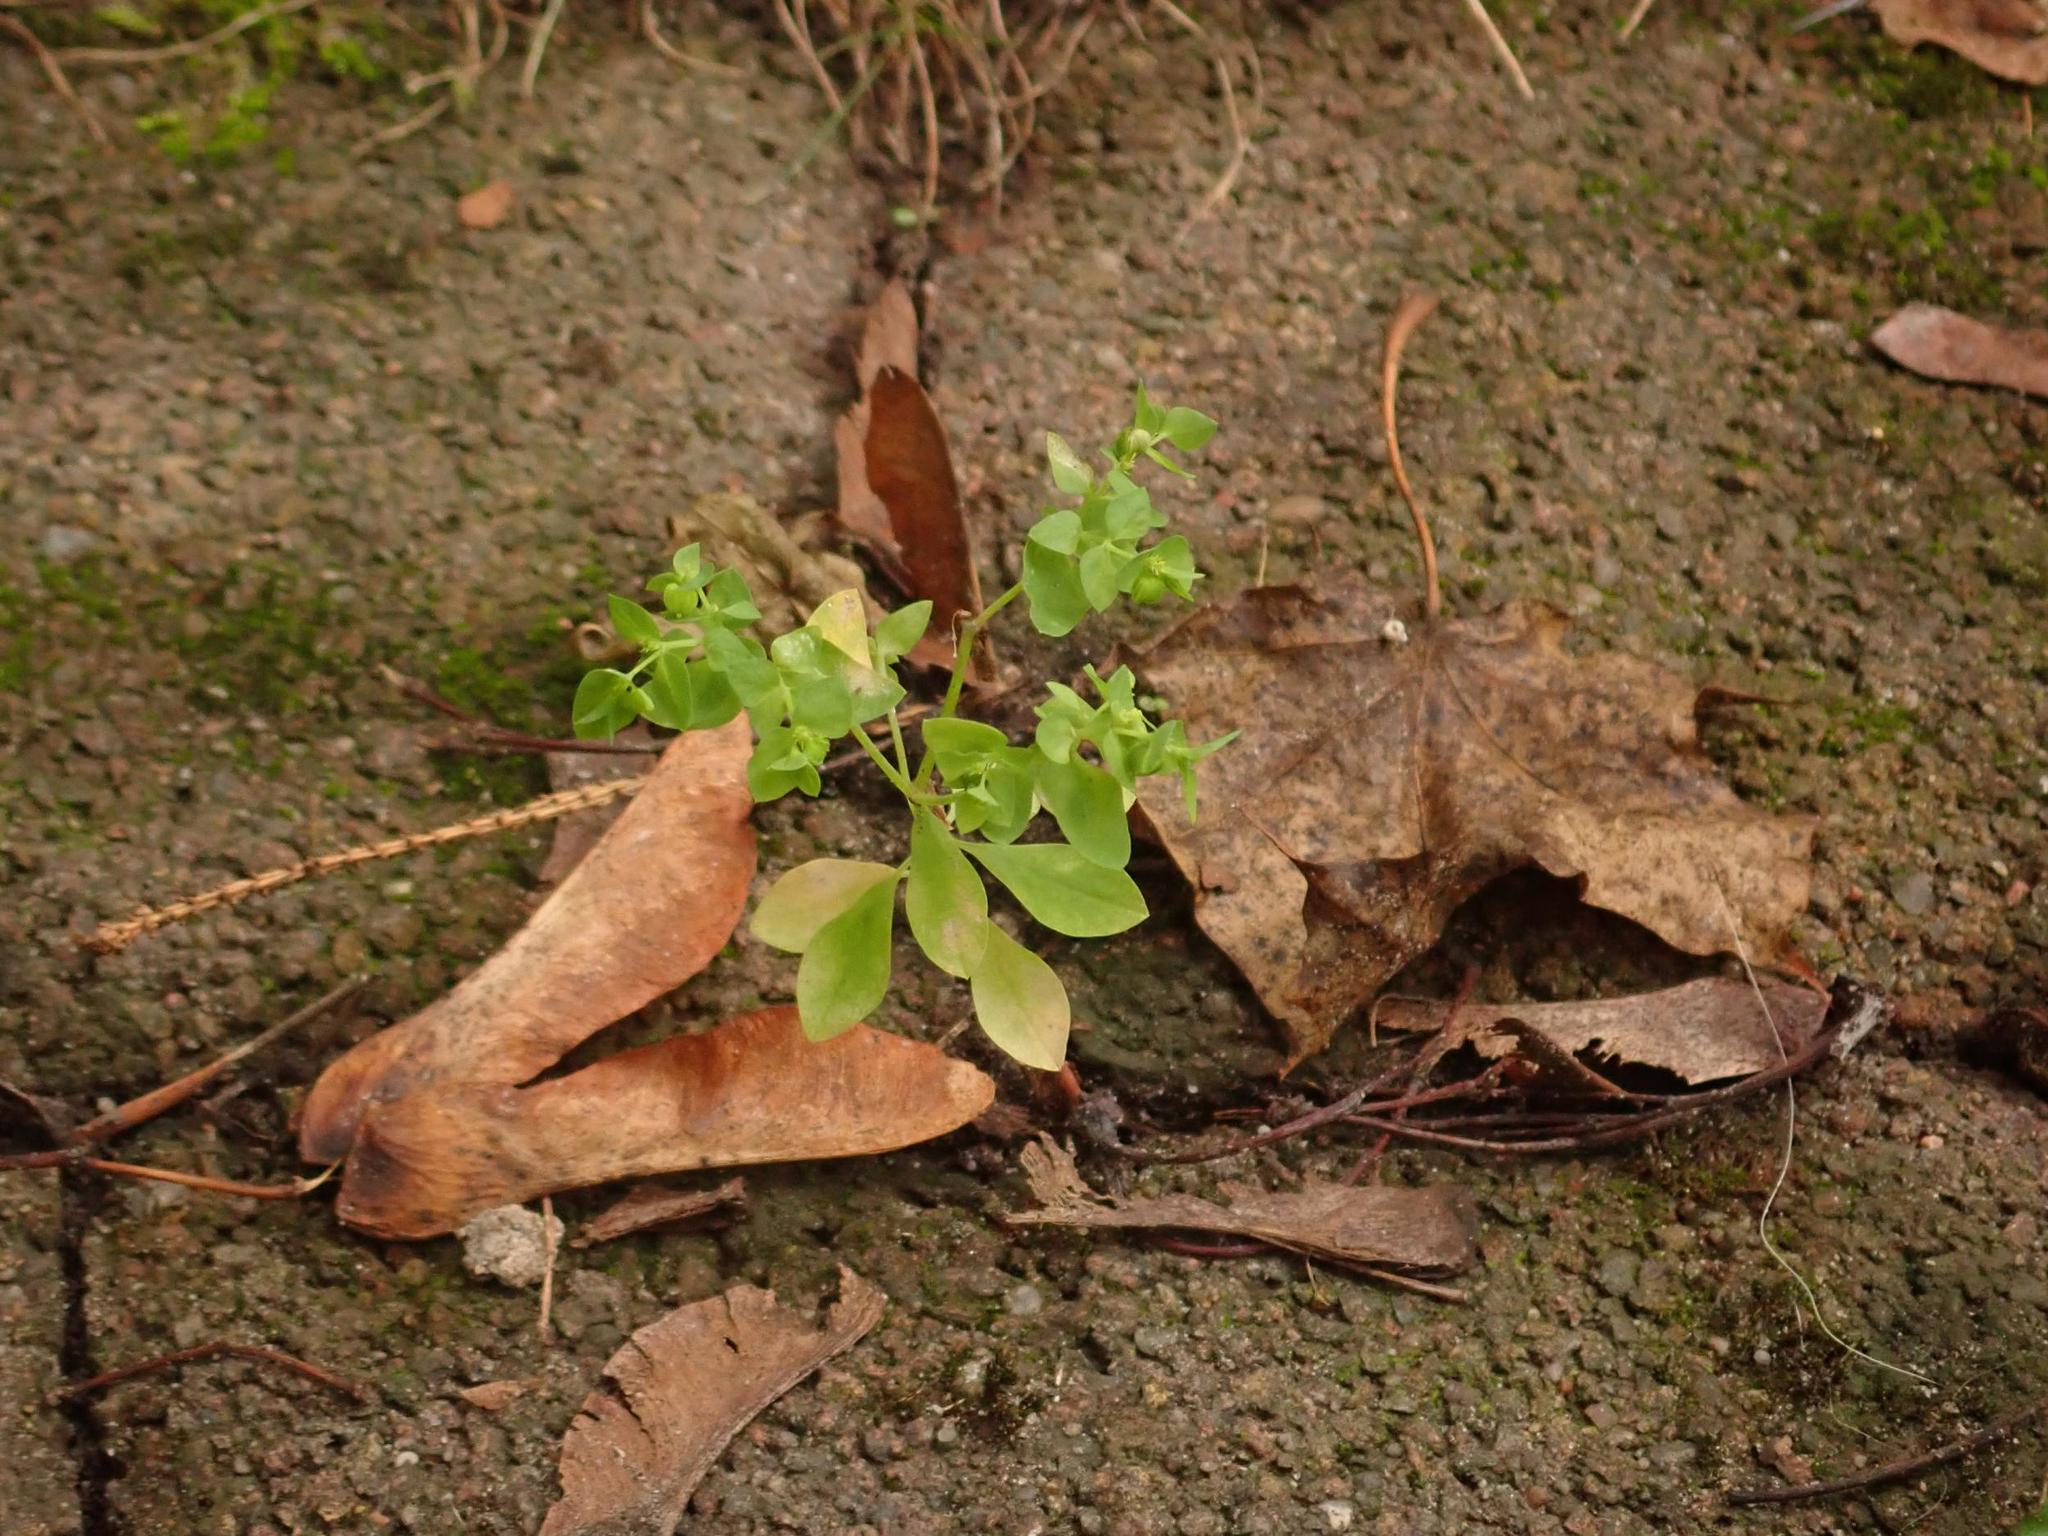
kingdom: Plantae
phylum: Tracheophyta
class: Magnoliopsida
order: Malpighiales
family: Euphorbiaceae
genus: Euphorbia
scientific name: Euphorbia peplus
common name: Petty spurge
